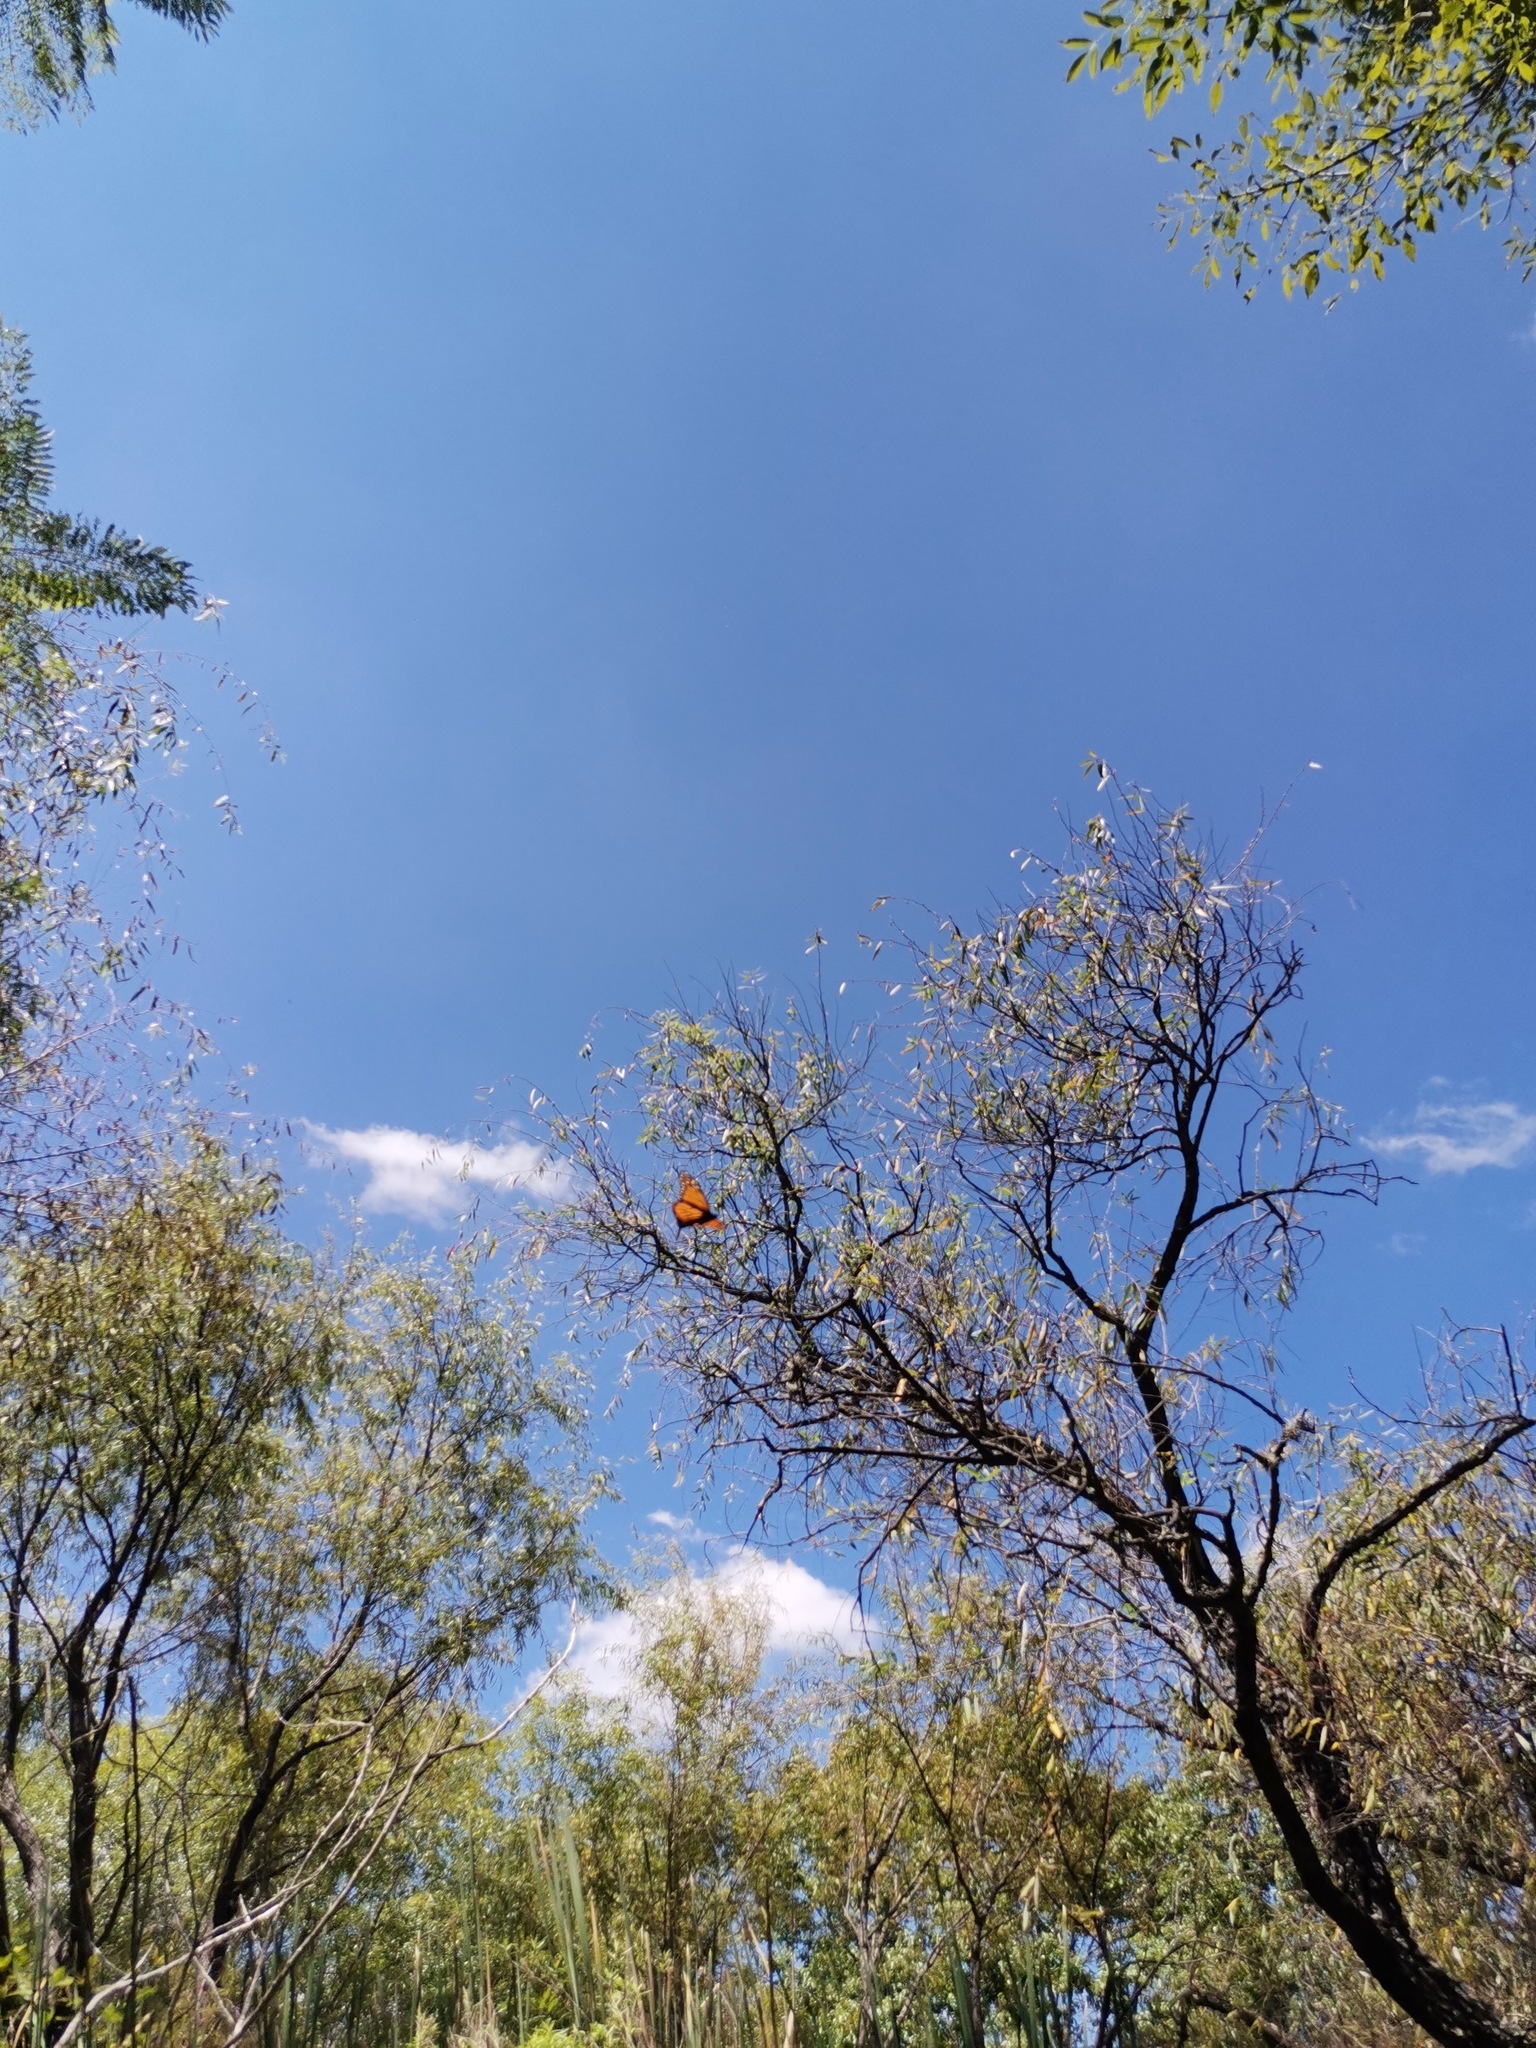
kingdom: Animalia
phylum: Arthropoda
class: Insecta
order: Lepidoptera
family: Nymphalidae
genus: Danaus
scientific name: Danaus plexippus
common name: Monarch
